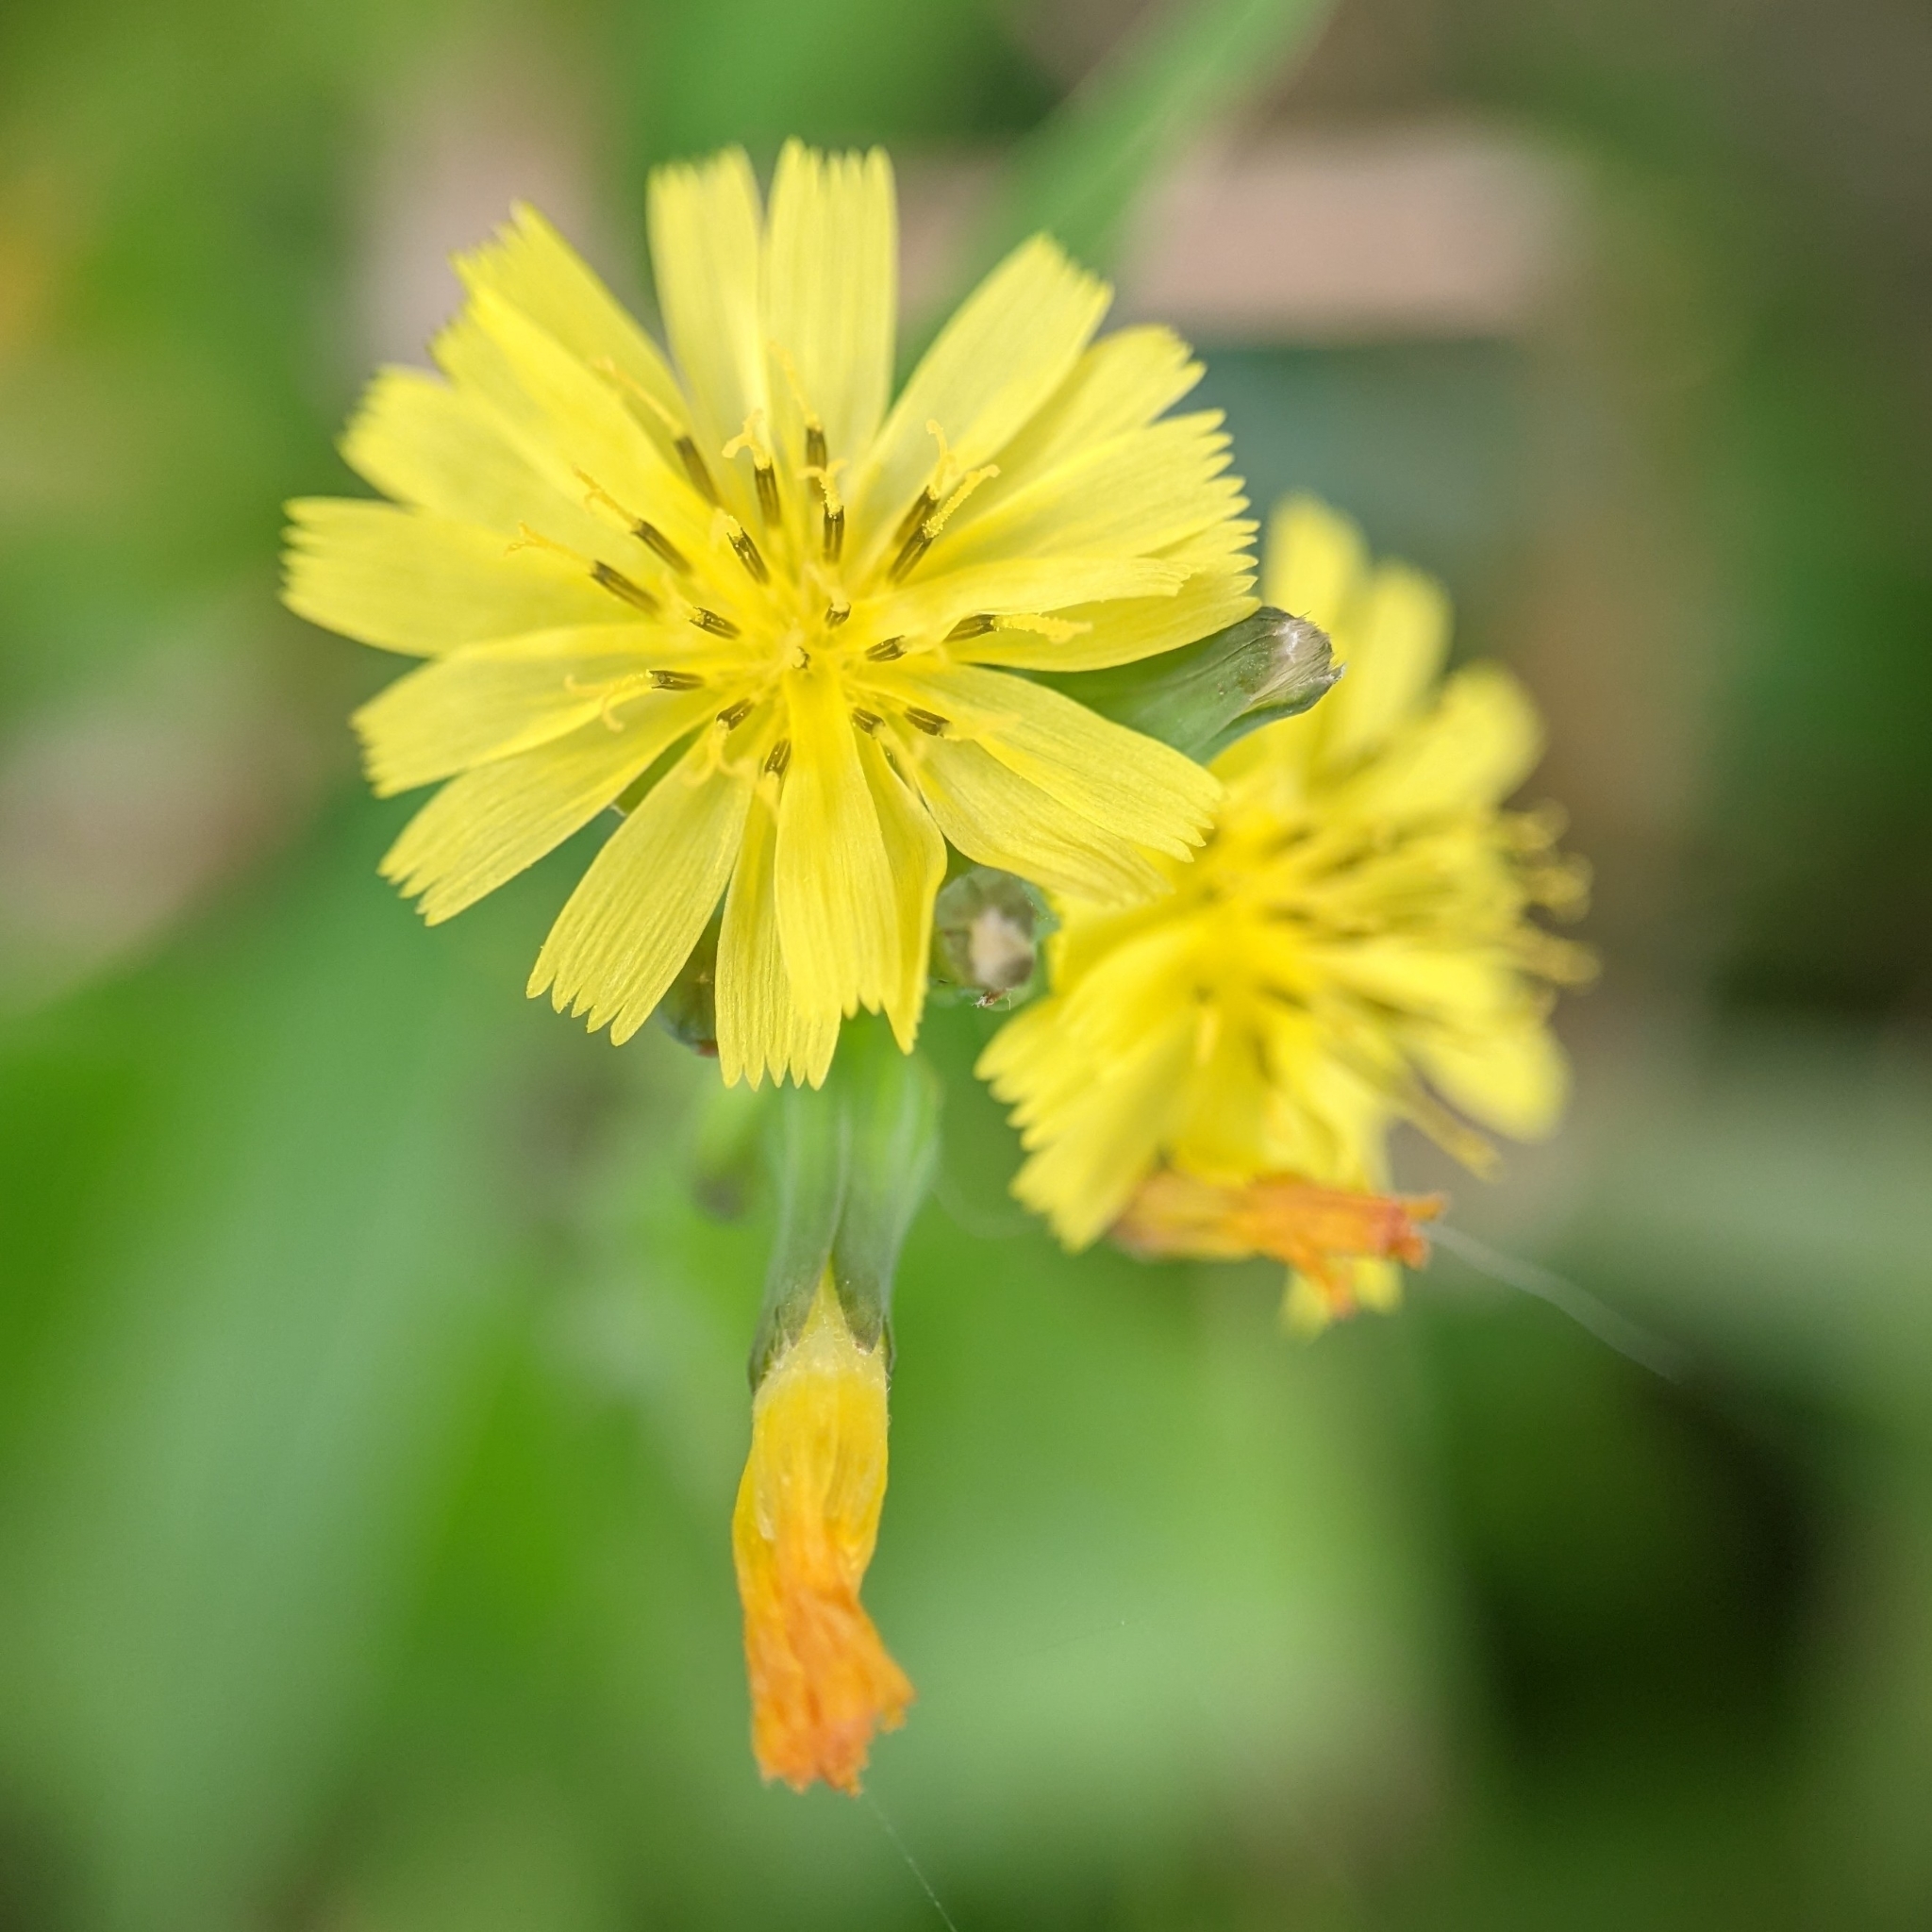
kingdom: Plantae
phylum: Tracheophyta
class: Magnoliopsida
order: Asterales
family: Asteraceae
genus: Youngia
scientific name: Youngia japonica
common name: Oriental false hawksbeard
